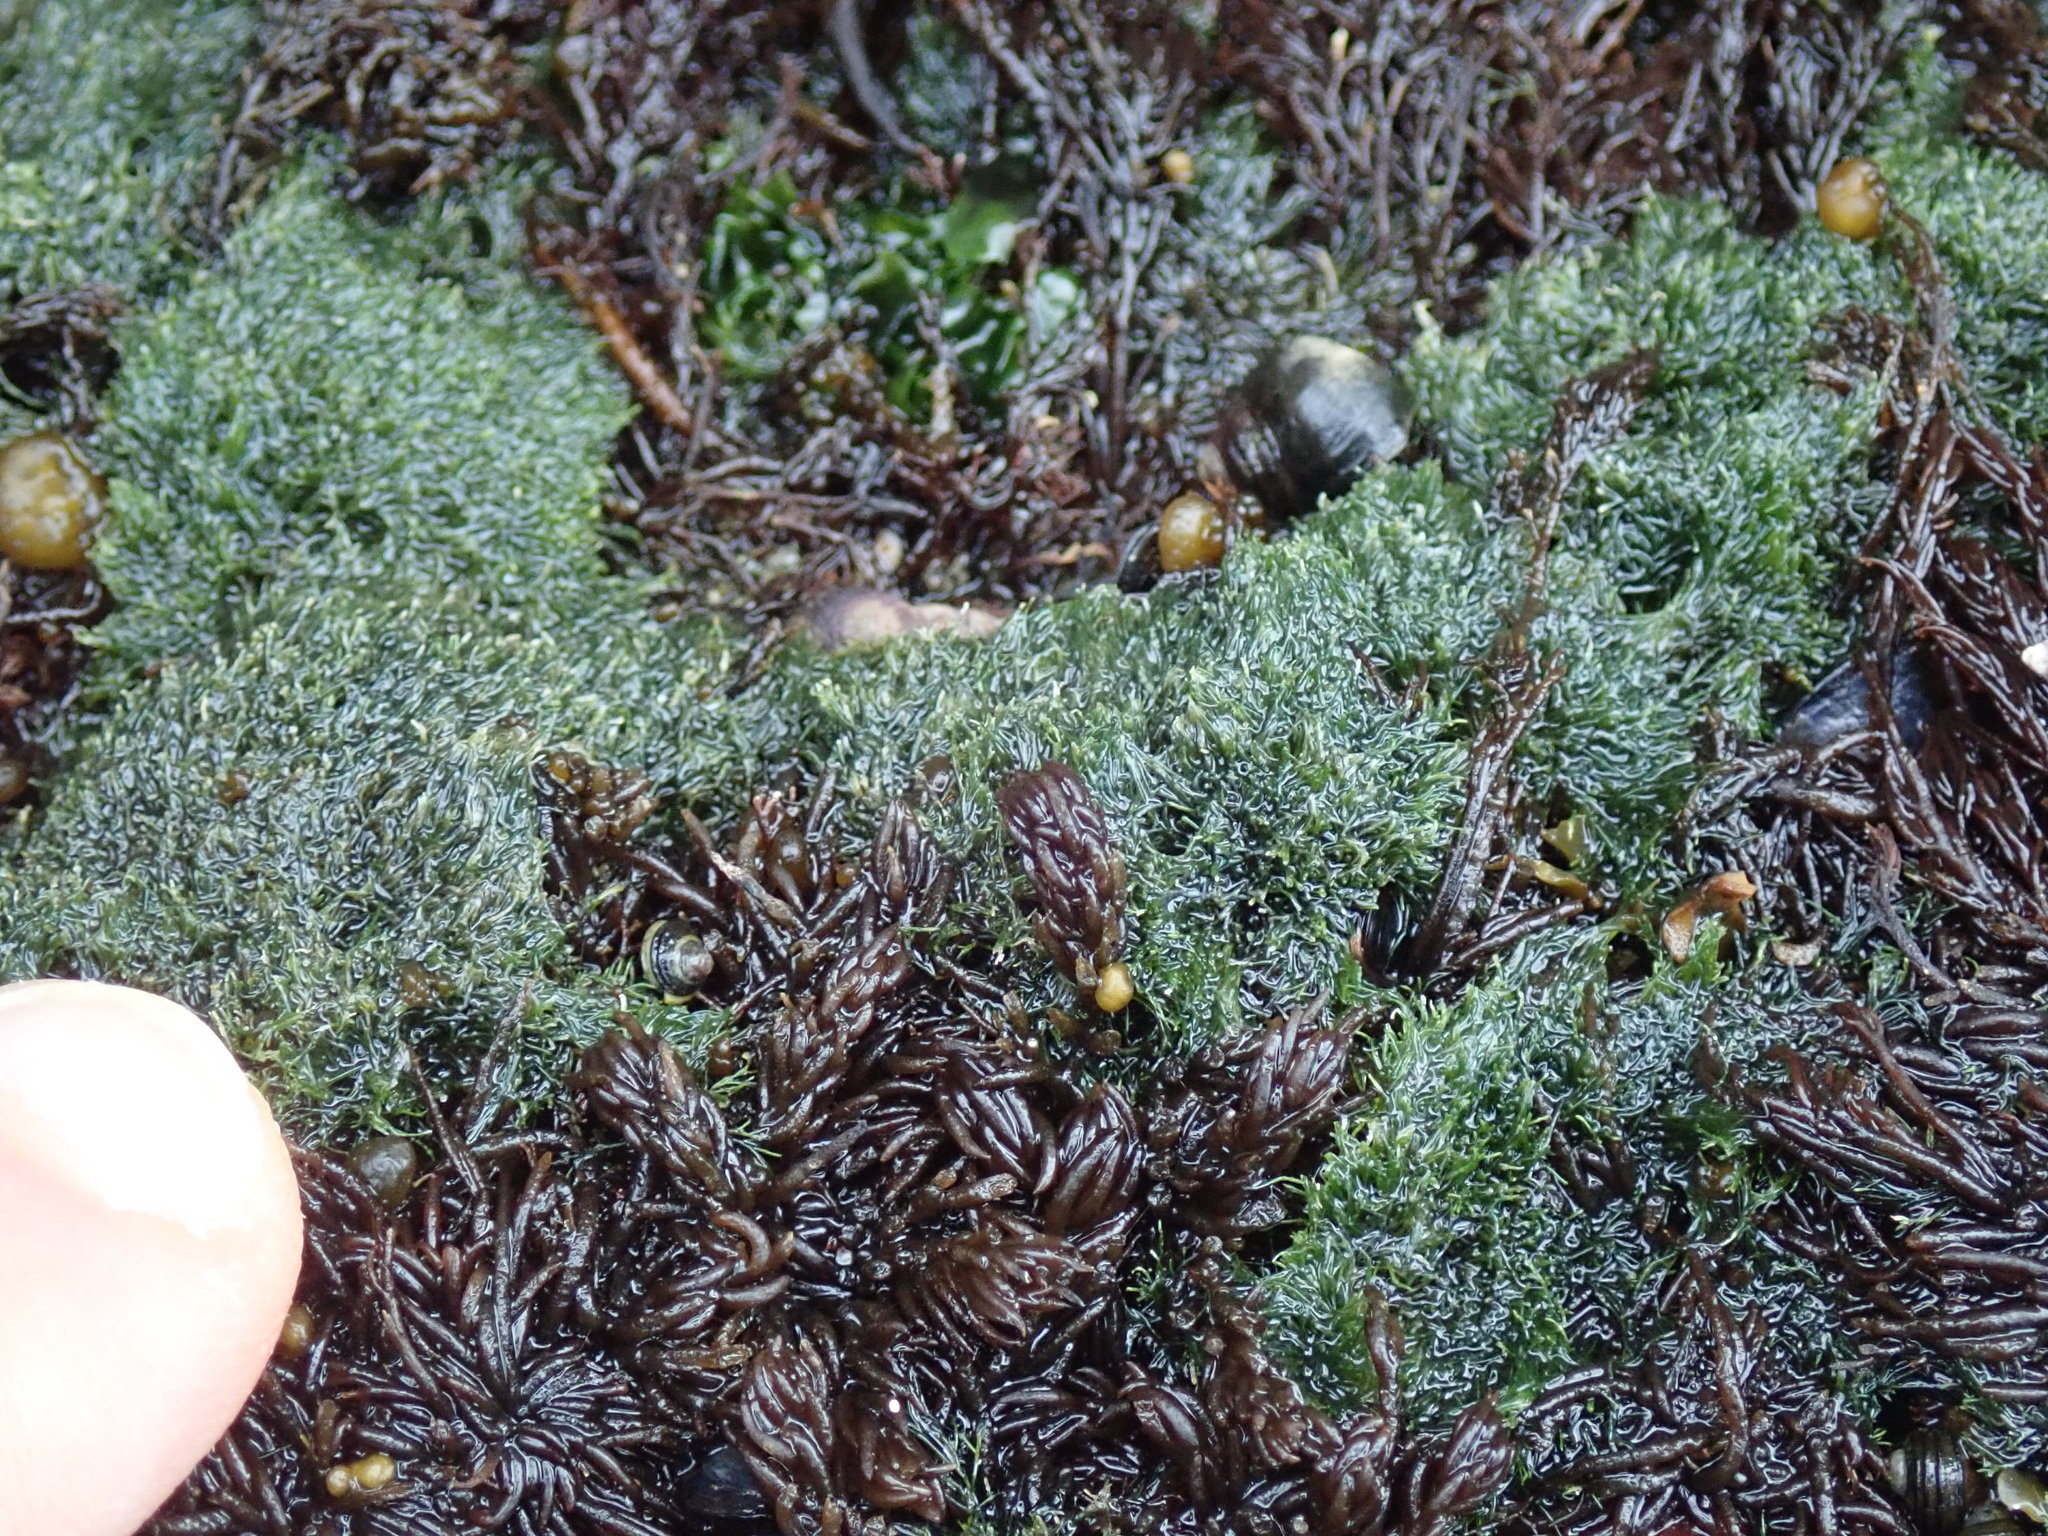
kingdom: Plantae
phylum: Chlorophyta
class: Ulvophyceae
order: Cladophorales
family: Cladophoraceae
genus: Cladophora
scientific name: Cladophora columbiana
